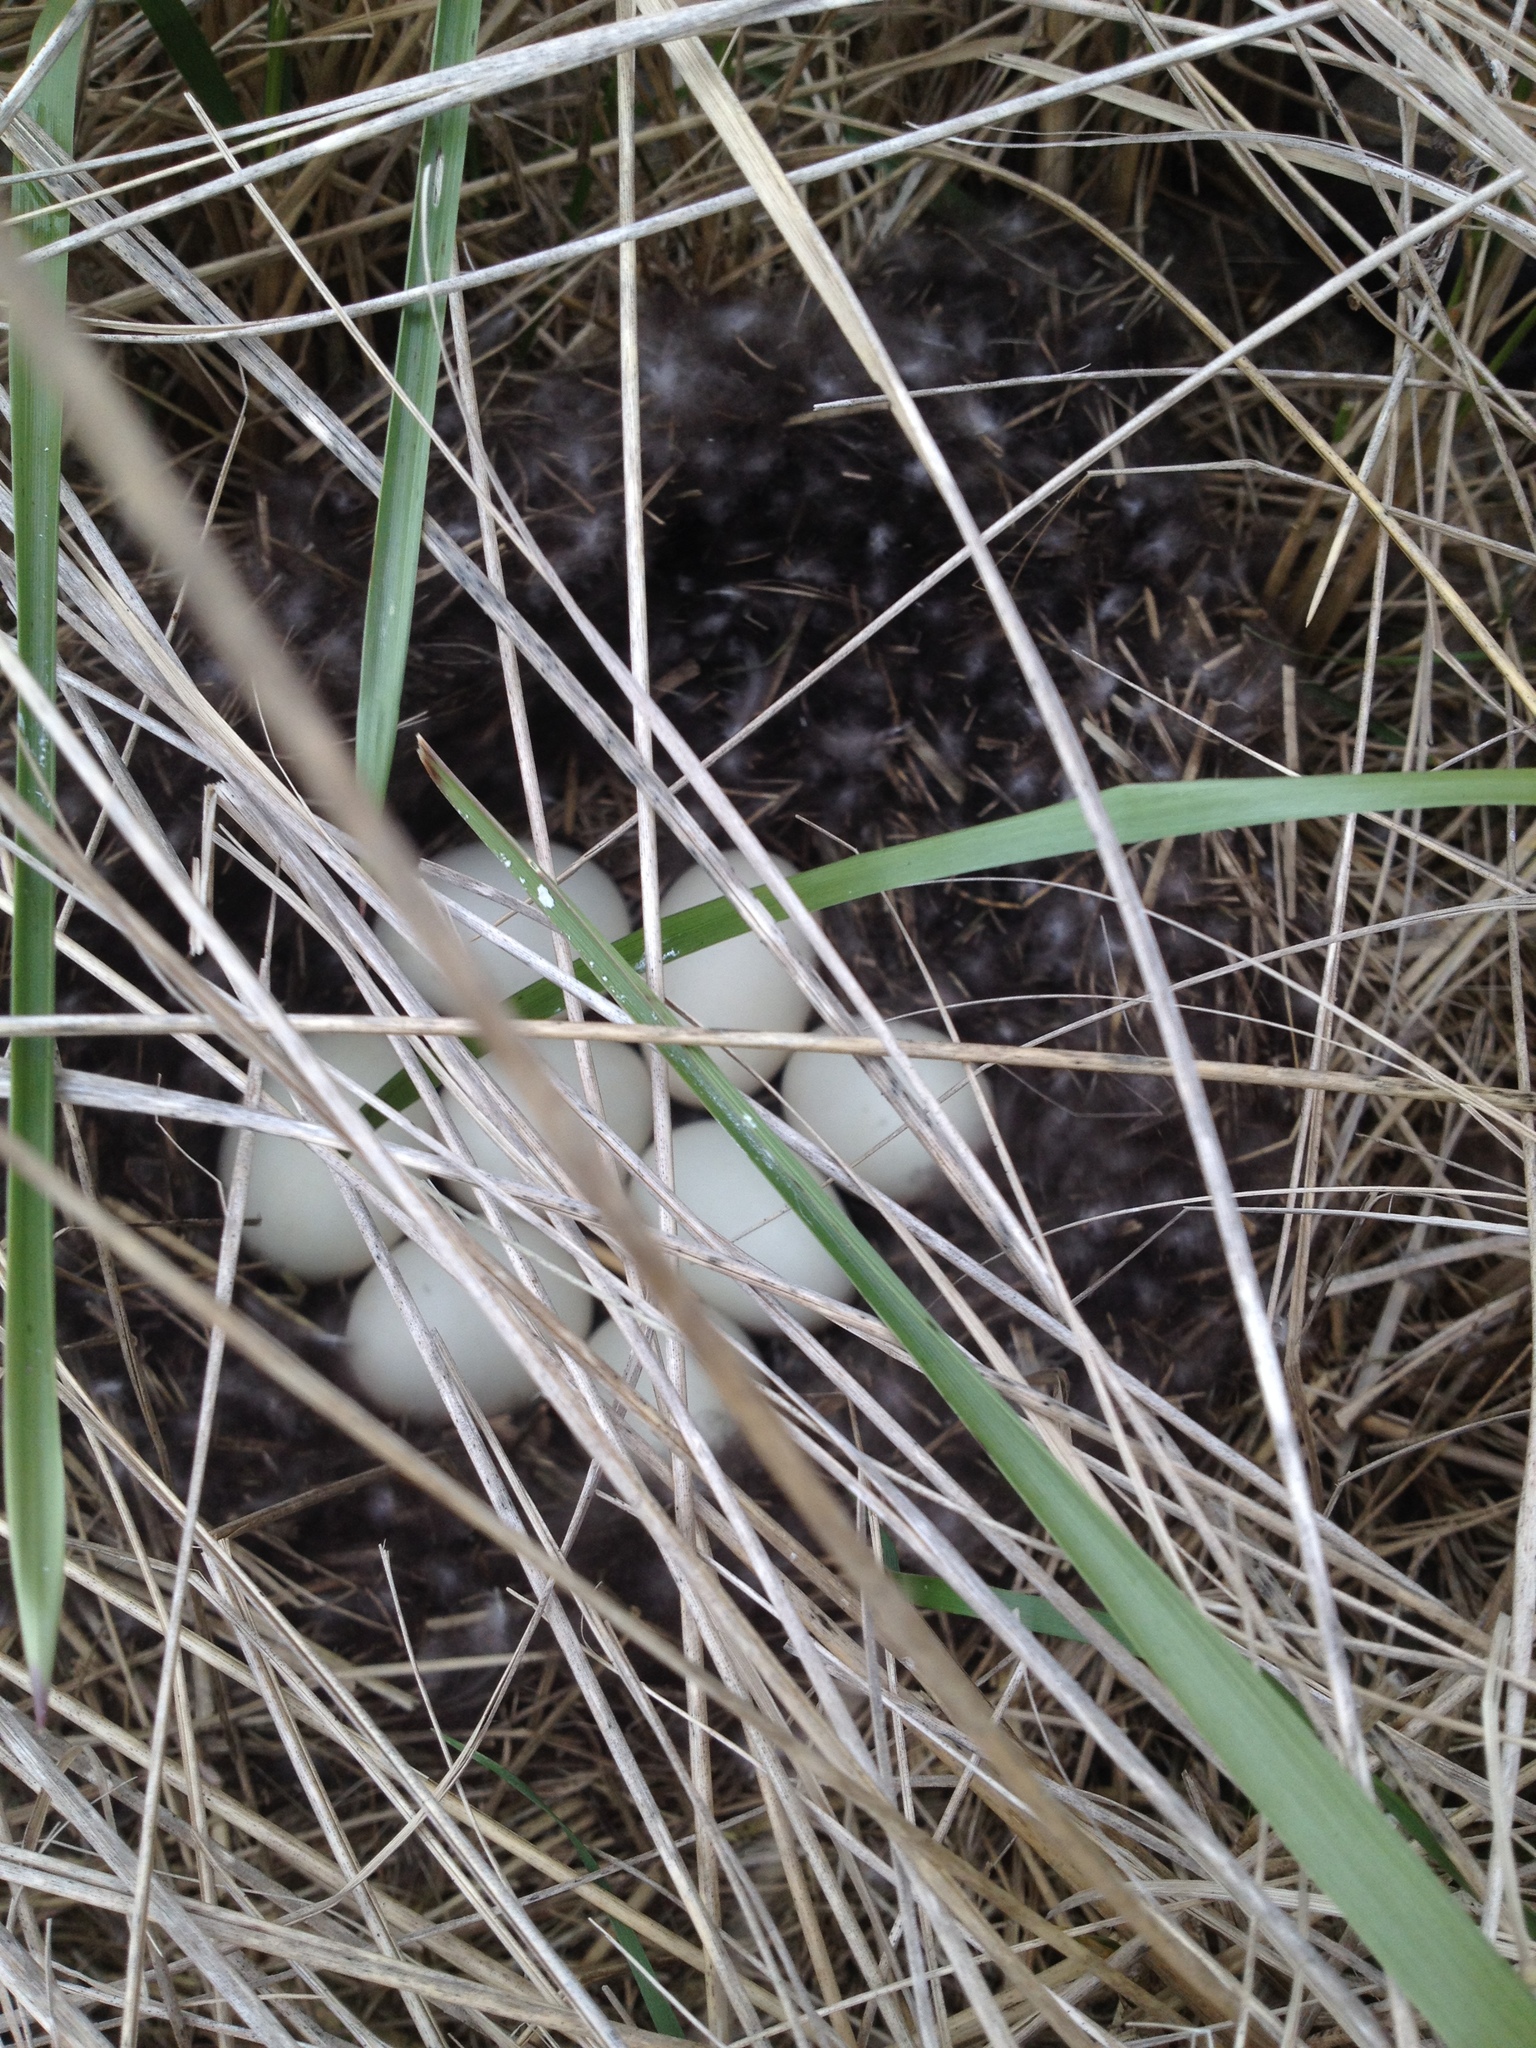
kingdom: Animalia
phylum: Chordata
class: Aves
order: Anseriformes
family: Anatidae
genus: Anas
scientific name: Anas rubripes
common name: American black duck
